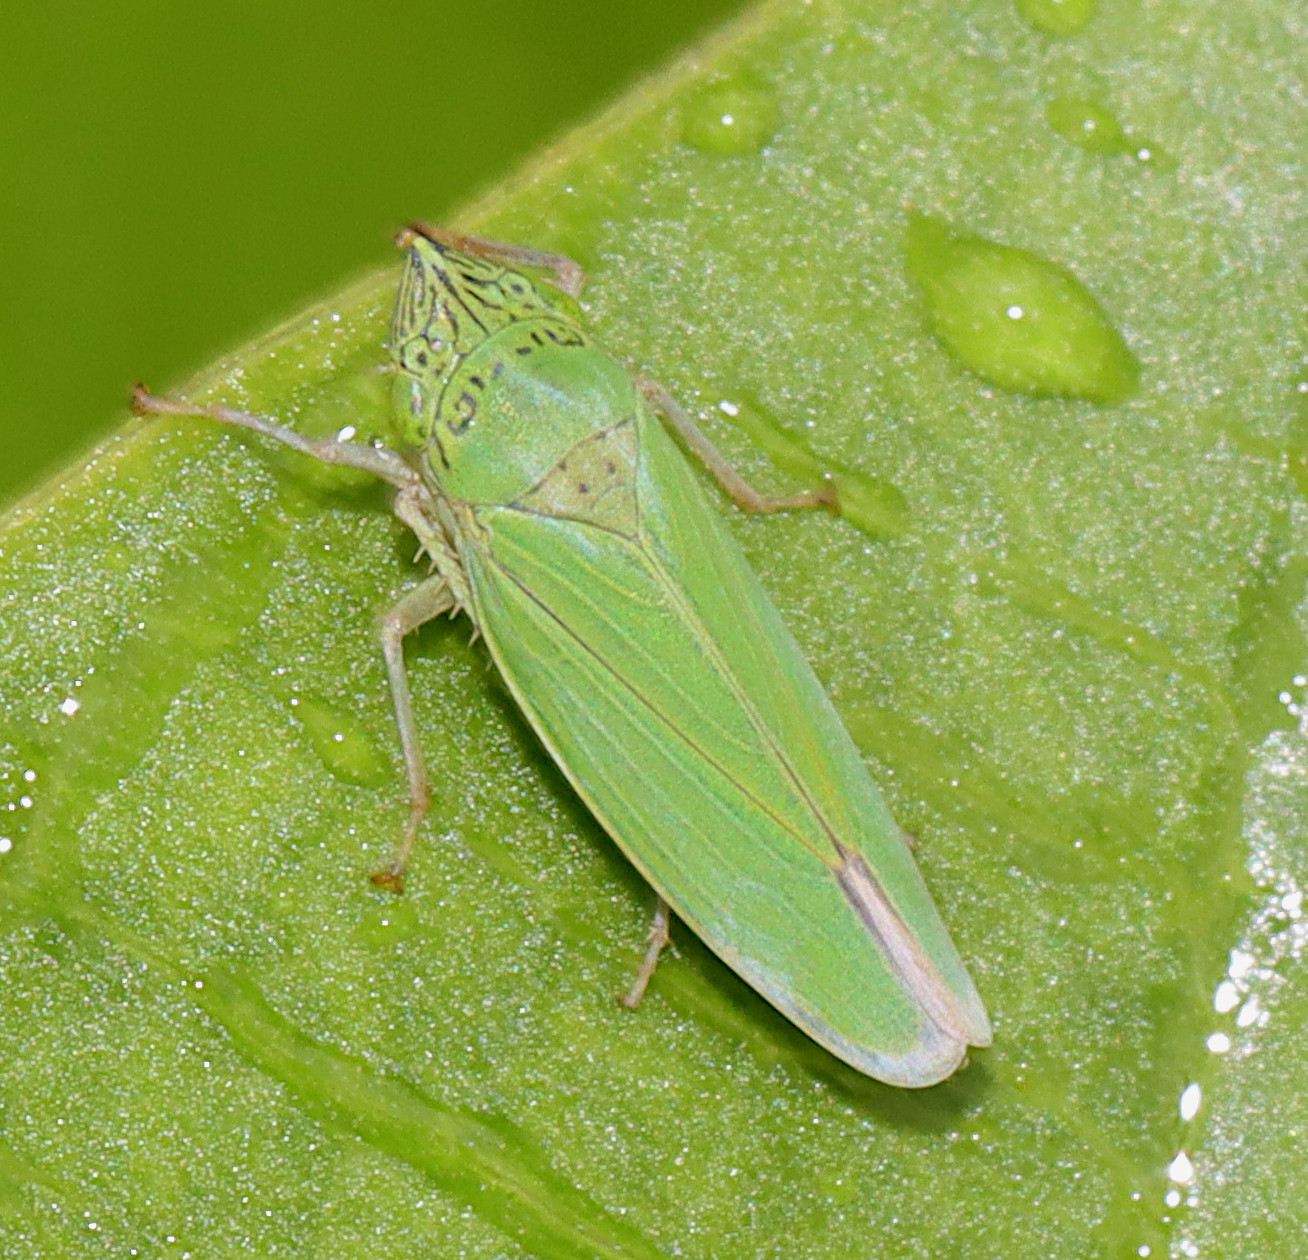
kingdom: Animalia
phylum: Arthropoda
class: Insecta
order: Hemiptera
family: Cicadellidae
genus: Draeculacephala
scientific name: Draeculacephala inscripta
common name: Leafhopper
